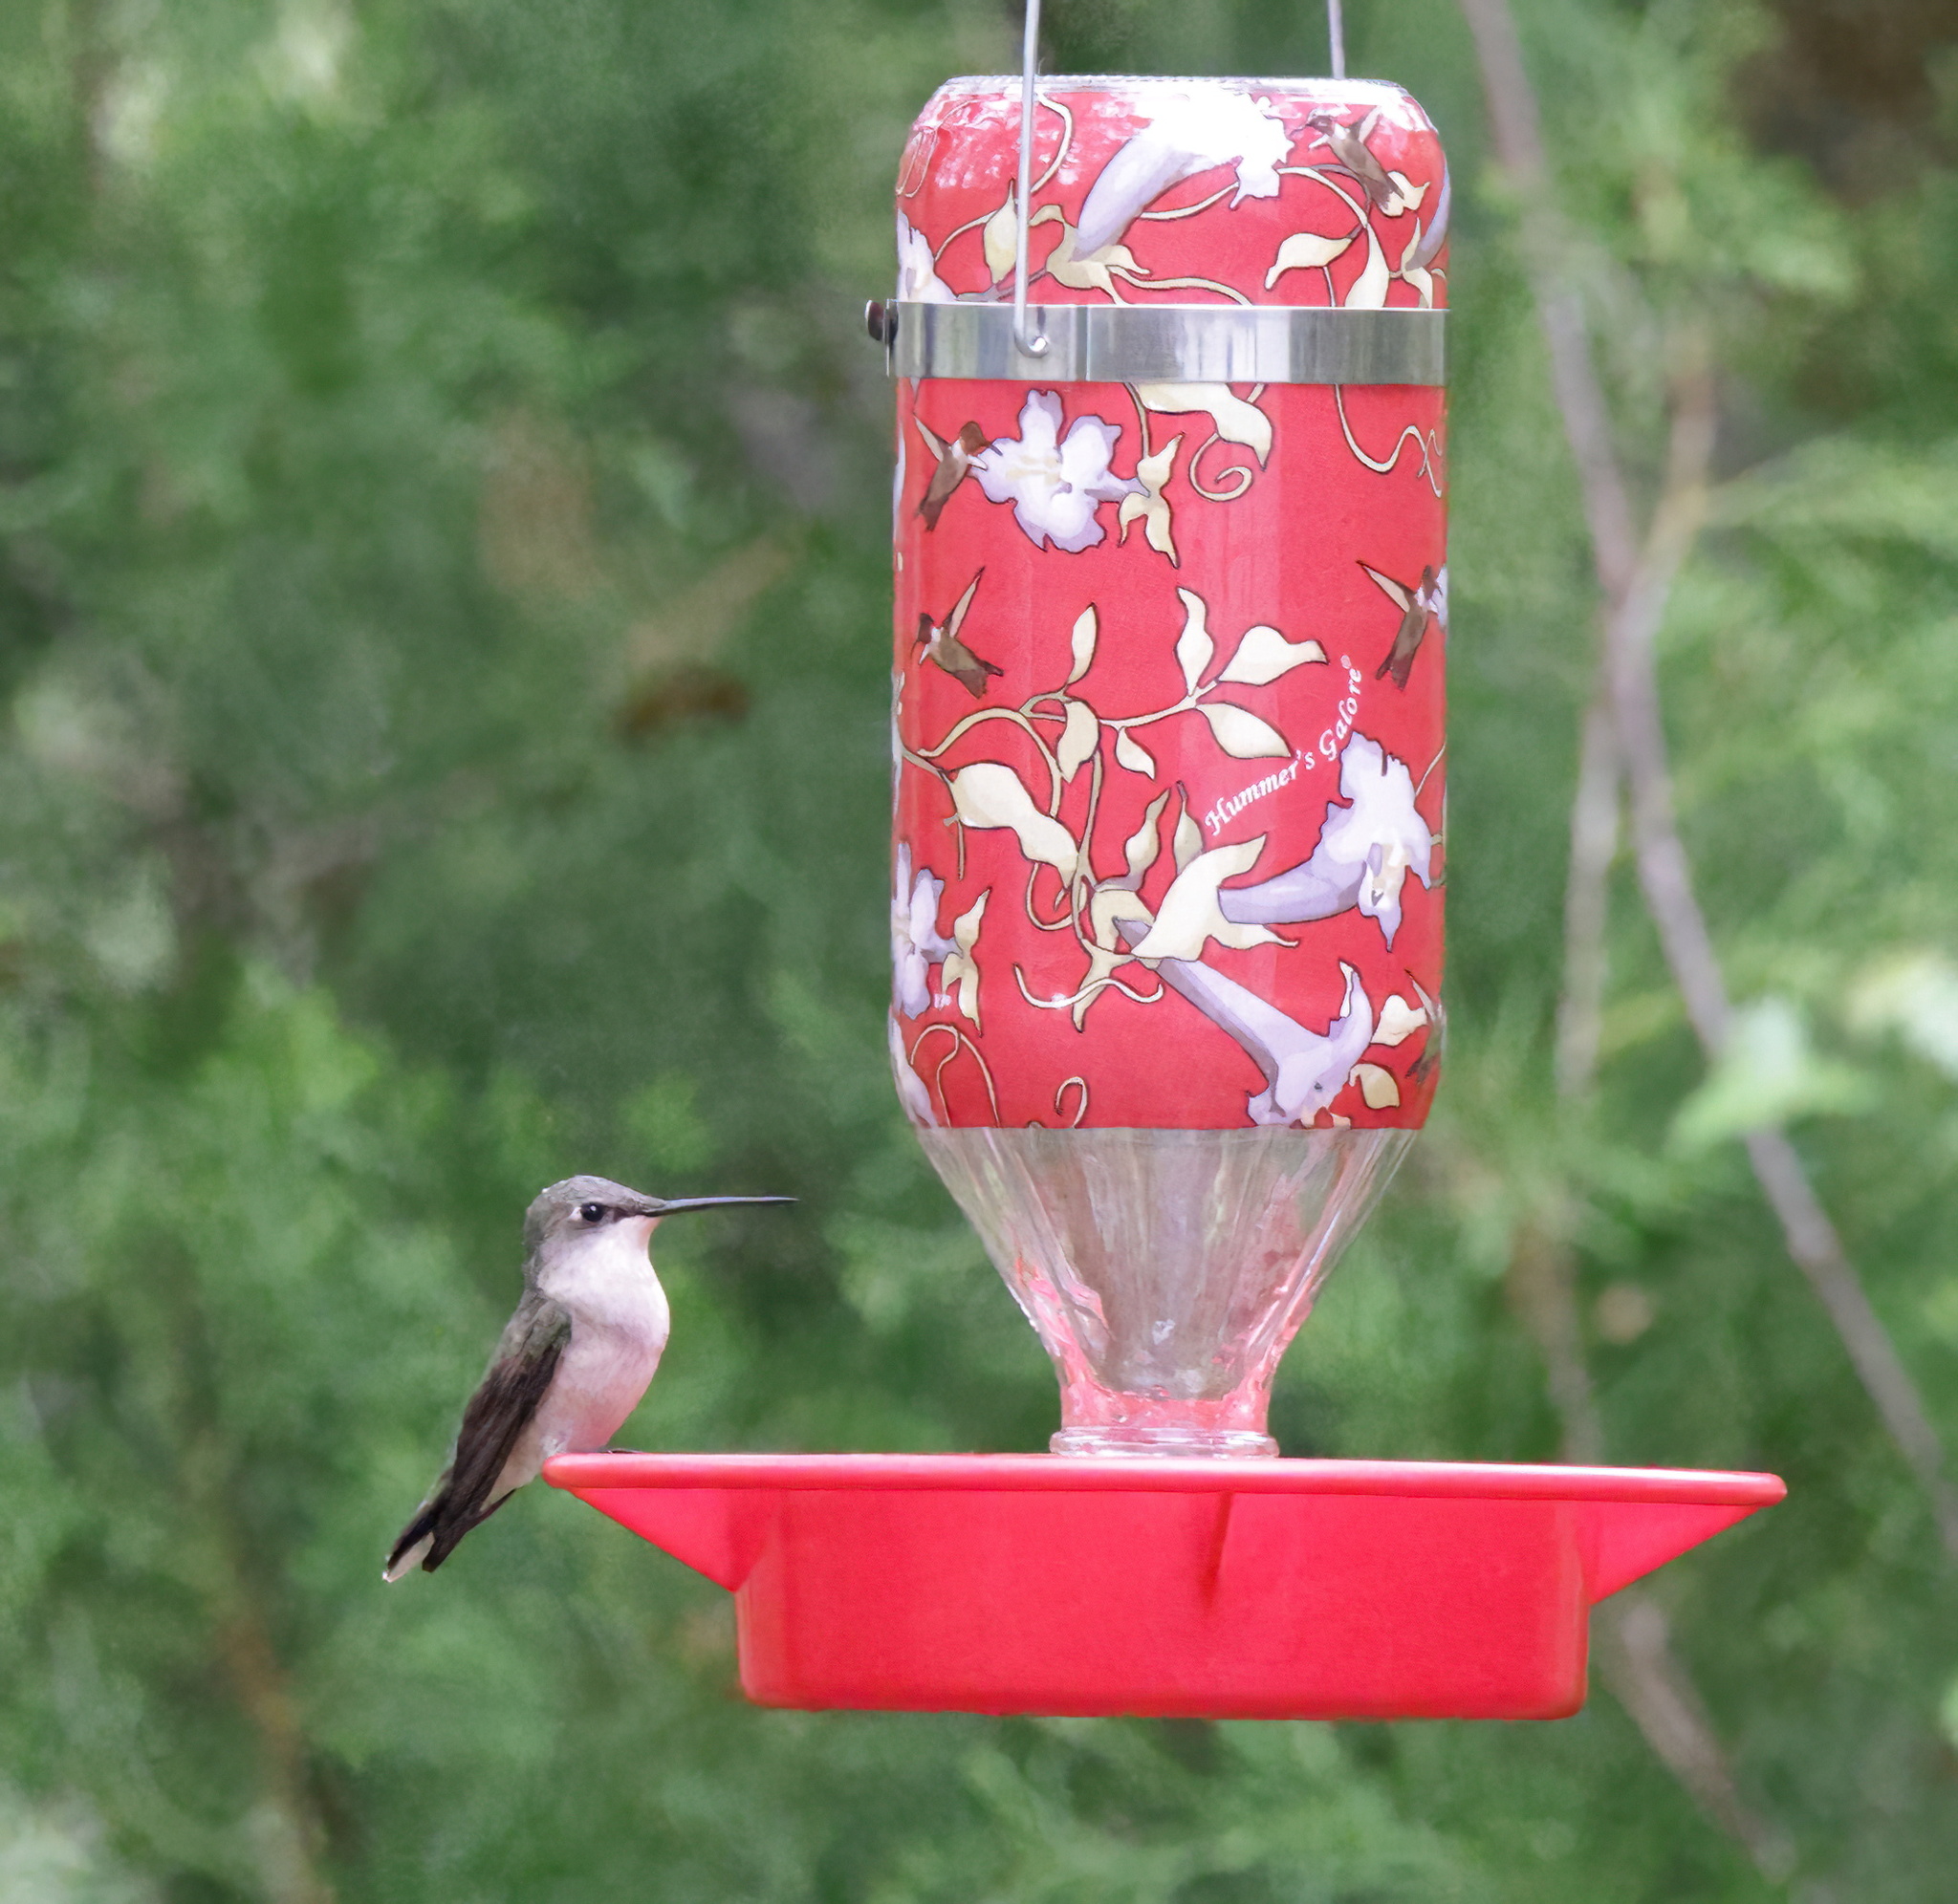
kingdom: Animalia
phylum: Chordata
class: Aves
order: Apodiformes
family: Trochilidae
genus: Archilochus
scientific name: Archilochus colubris
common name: Ruby-throated hummingbird
